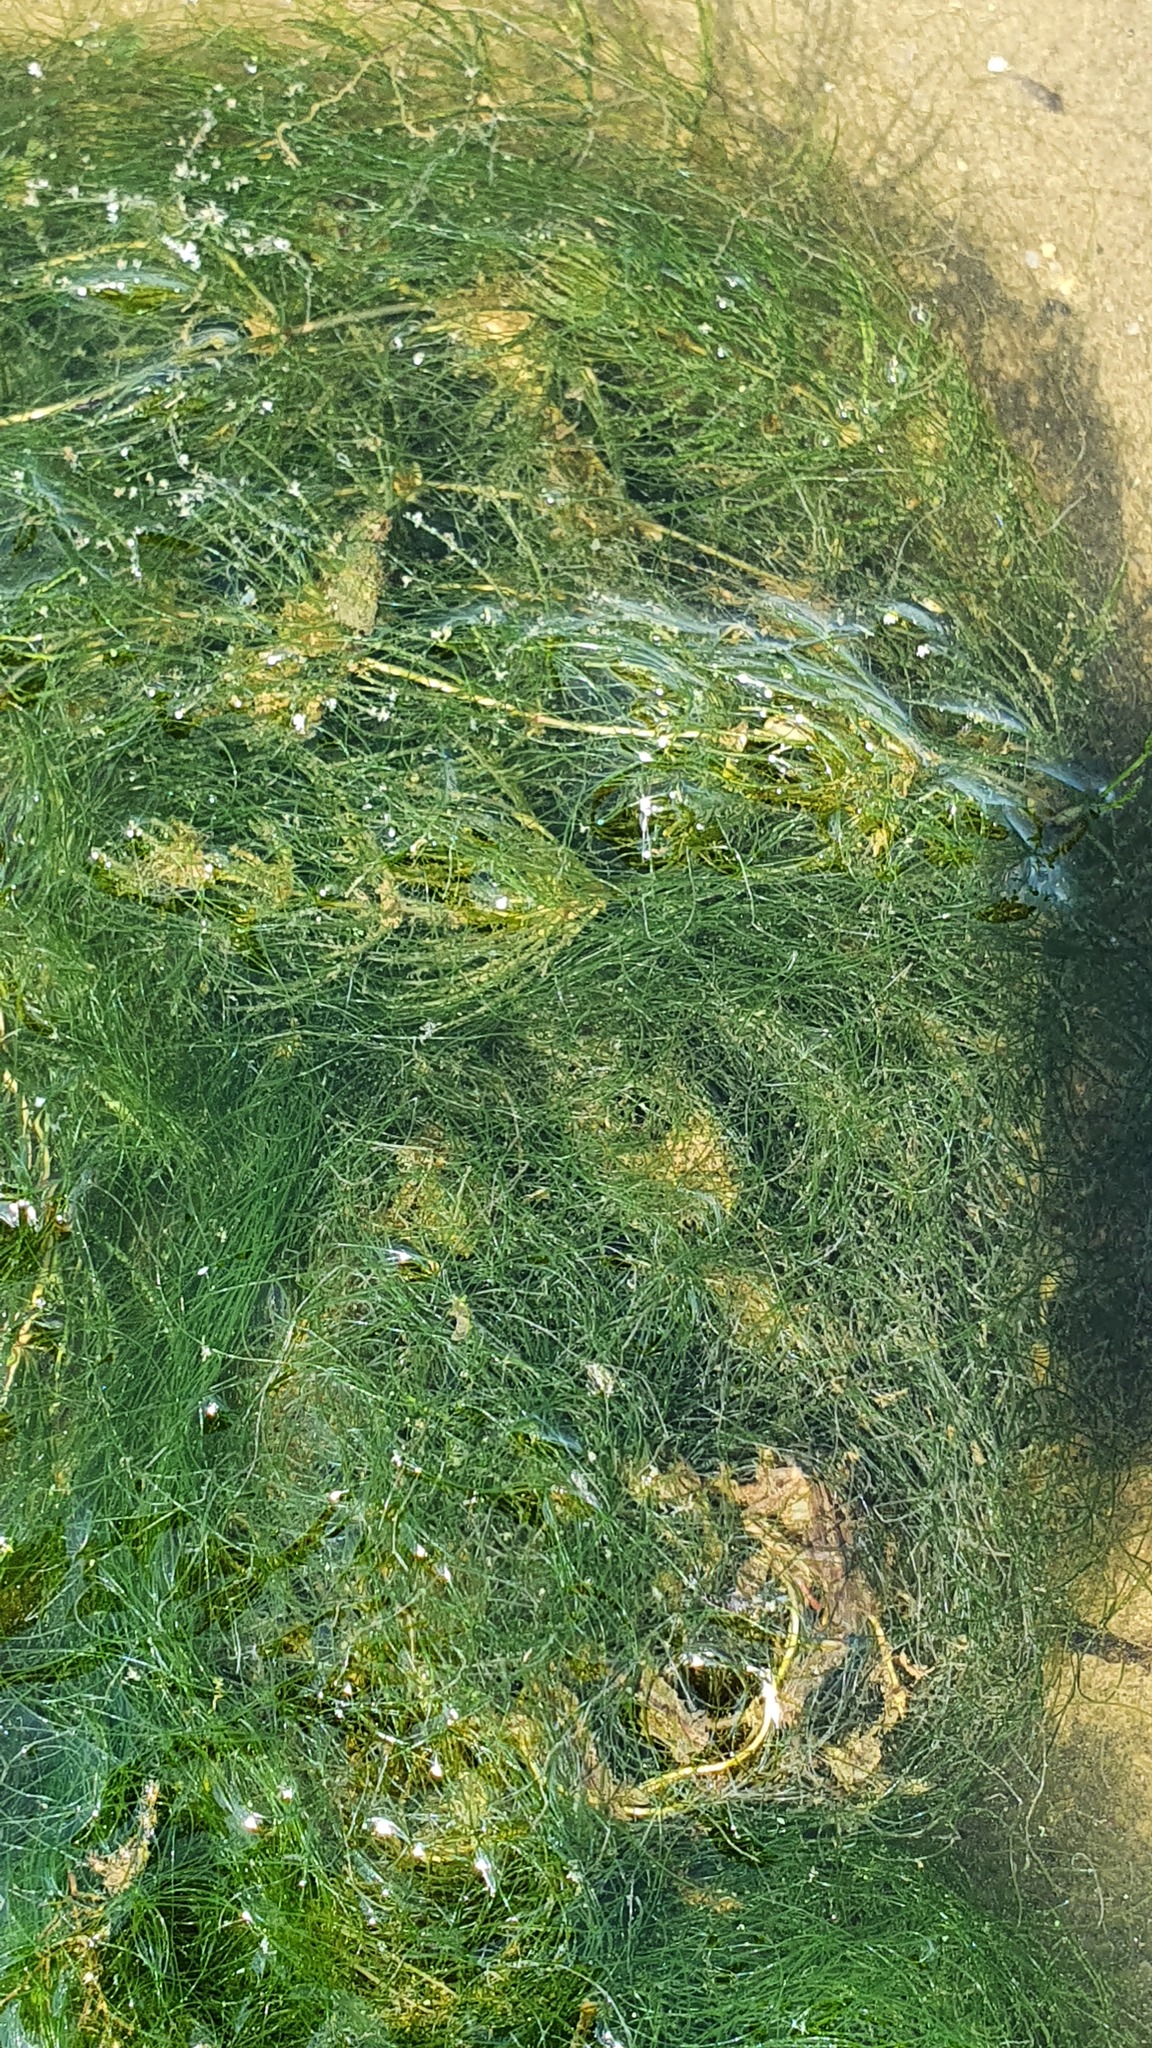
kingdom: Plantae
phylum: Tracheophyta
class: Magnoliopsida
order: Ceratophyllales
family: Ceratophyllaceae
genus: Ceratophyllum
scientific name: Ceratophyllum demersum
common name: Rigid hornwort
